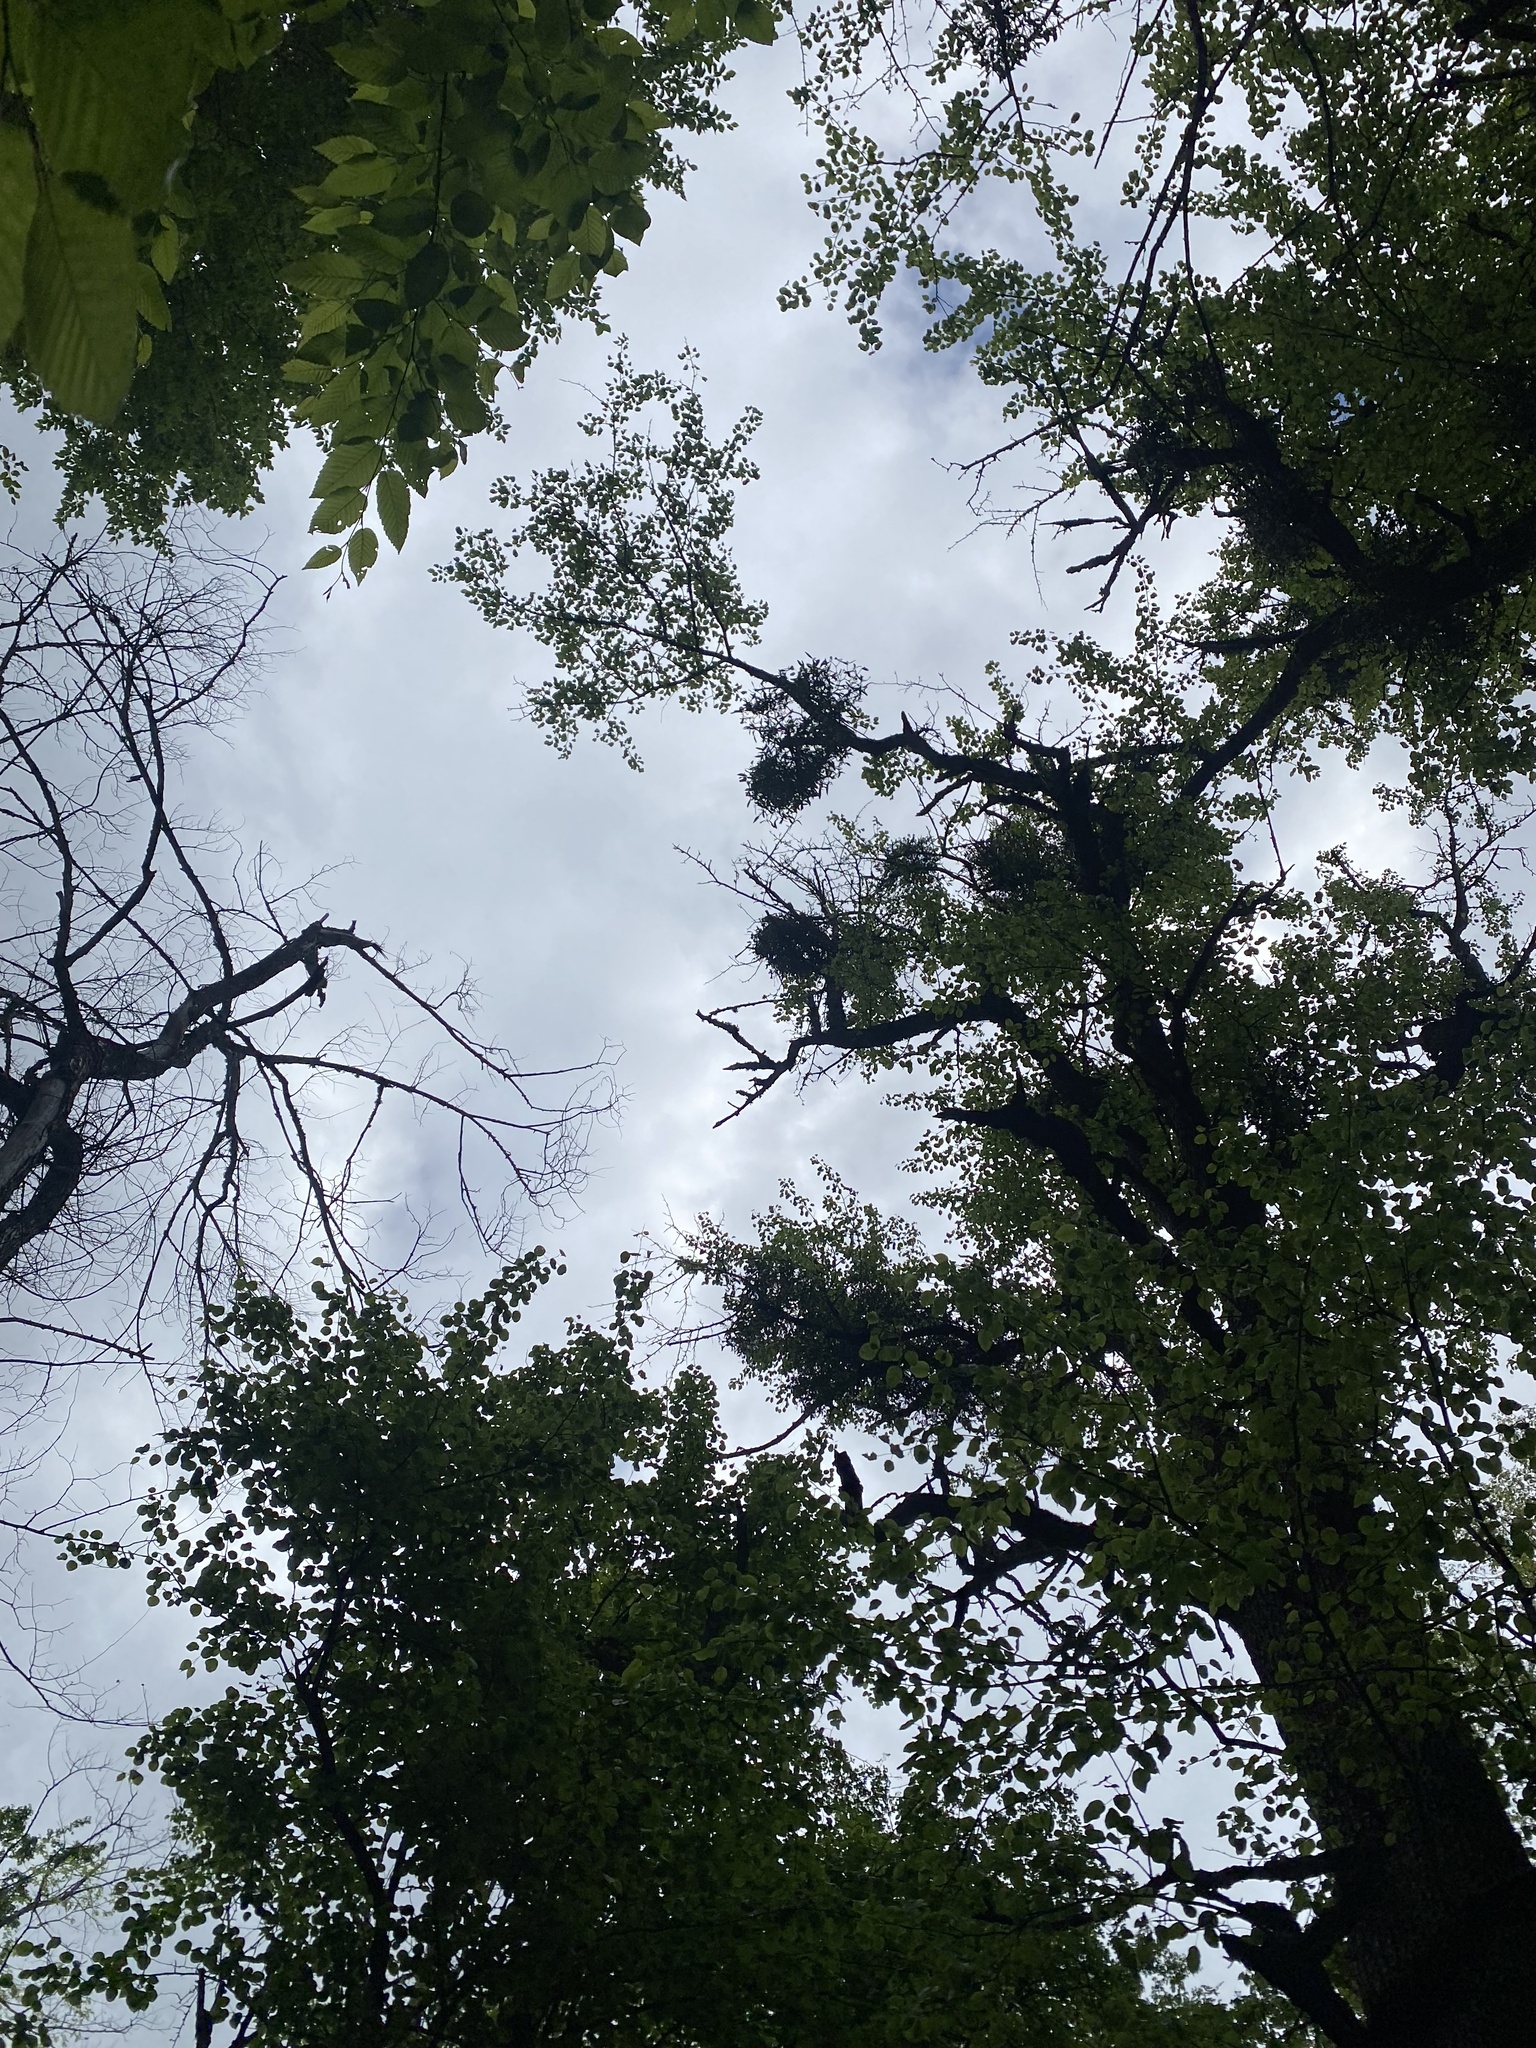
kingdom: Plantae
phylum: Tracheophyta
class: Magnoliopsida
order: Santalales
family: Viscaceae
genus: Viscum
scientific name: Viscum album
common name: Mistletoe
